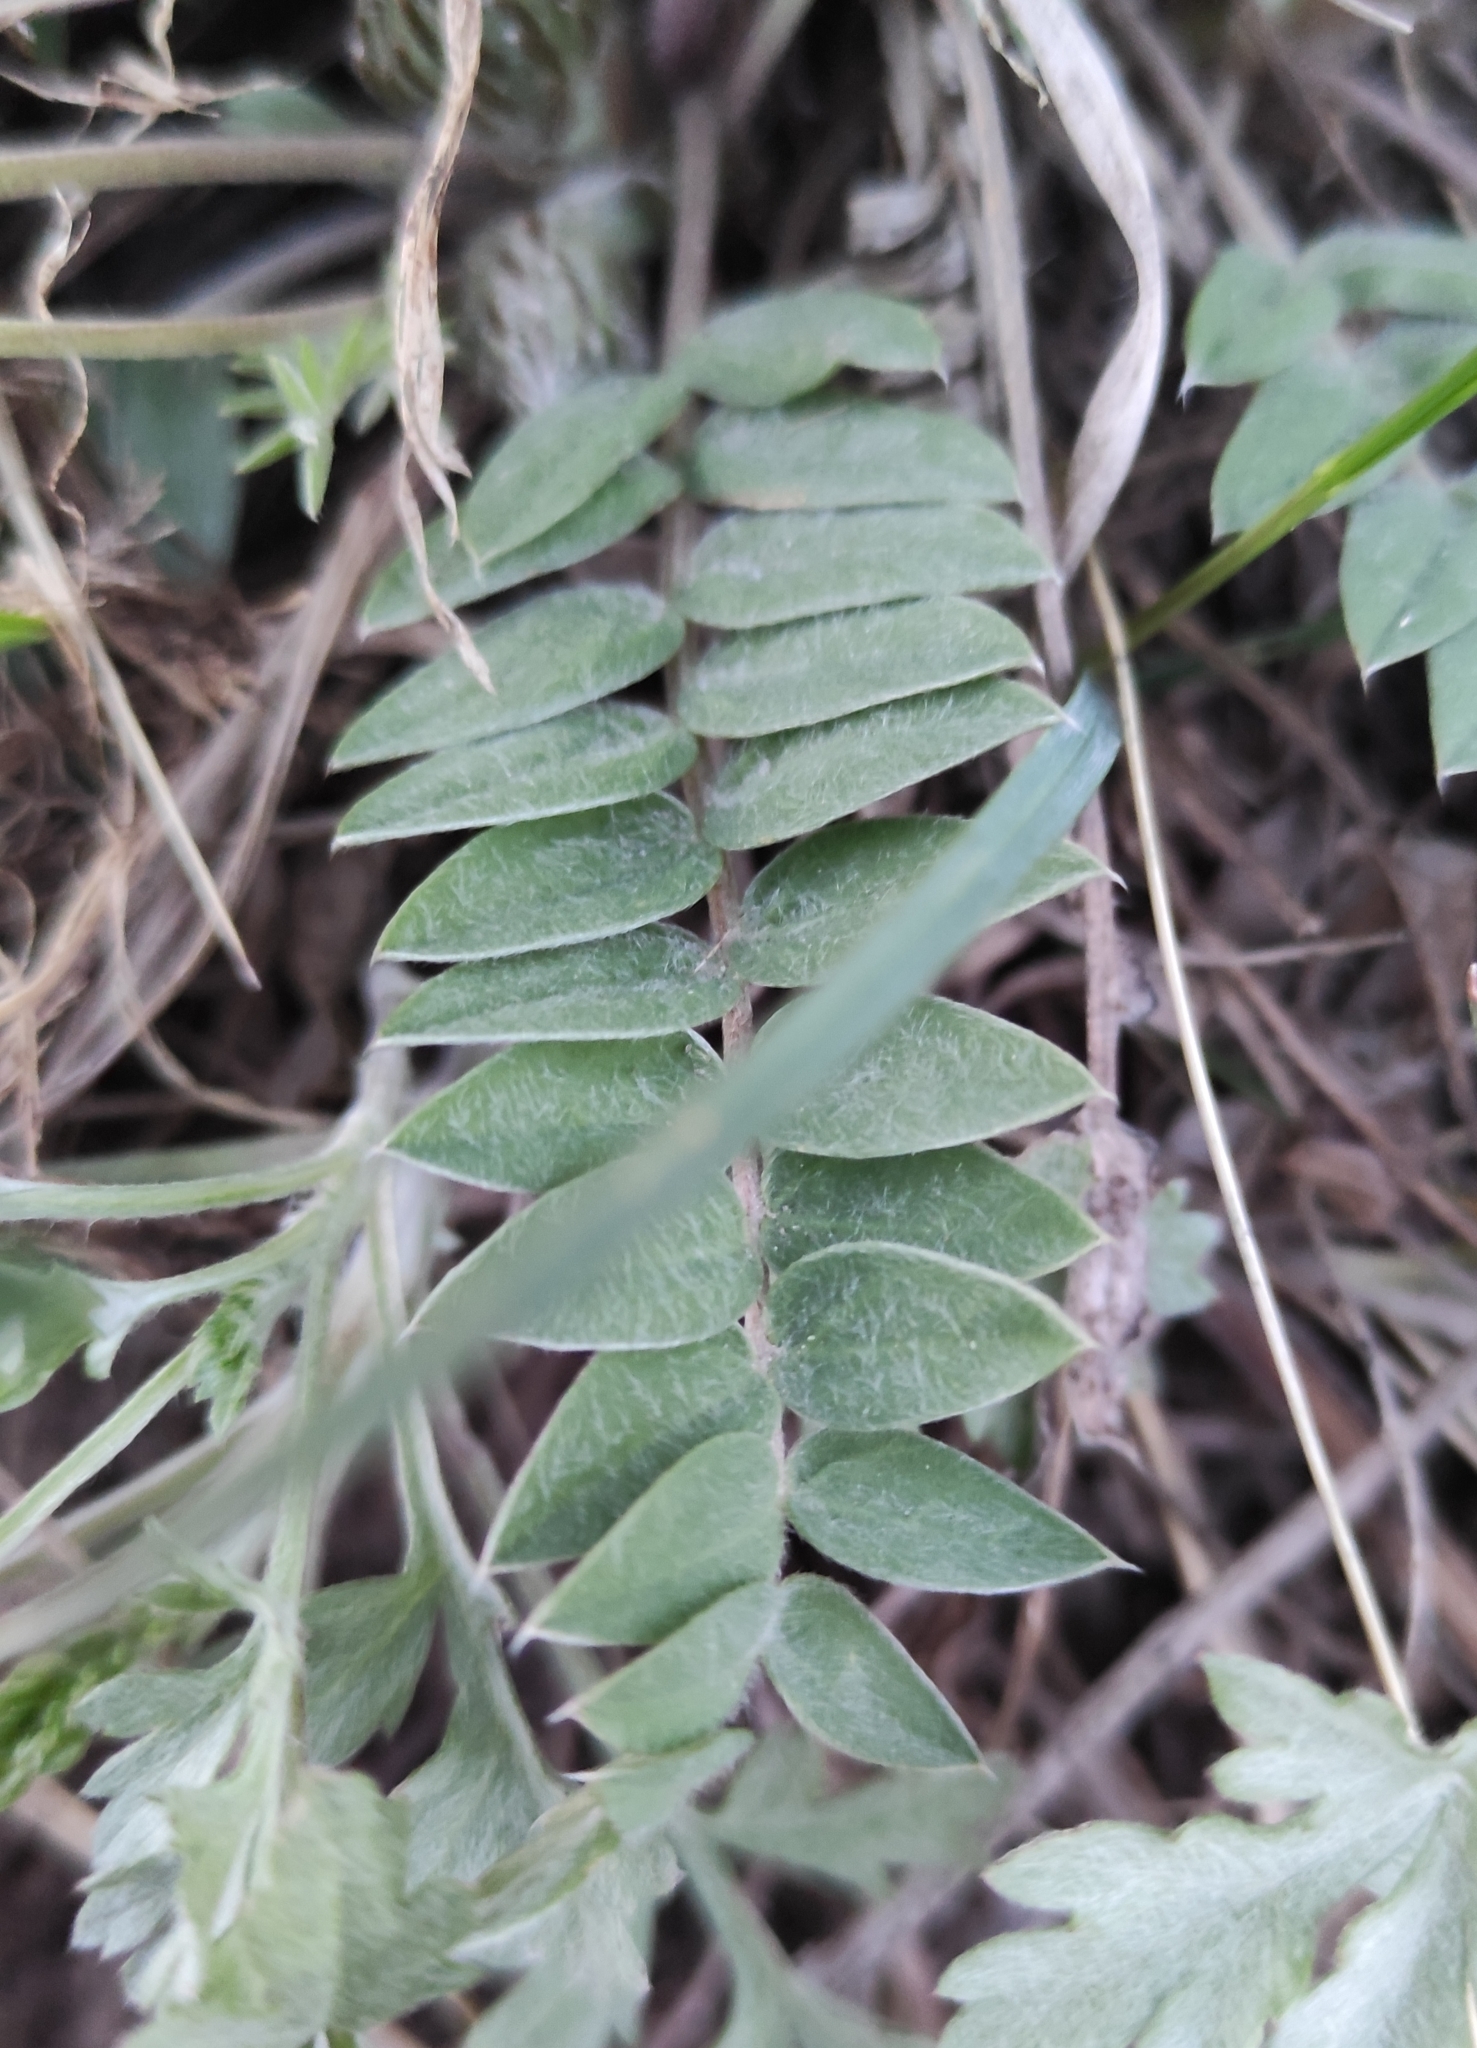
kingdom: Plantae
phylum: Tracheophyta
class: Magnoliopsida
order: Fabales
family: Fabaceae
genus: Oxytropis
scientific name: Oxytropis strobilacea
